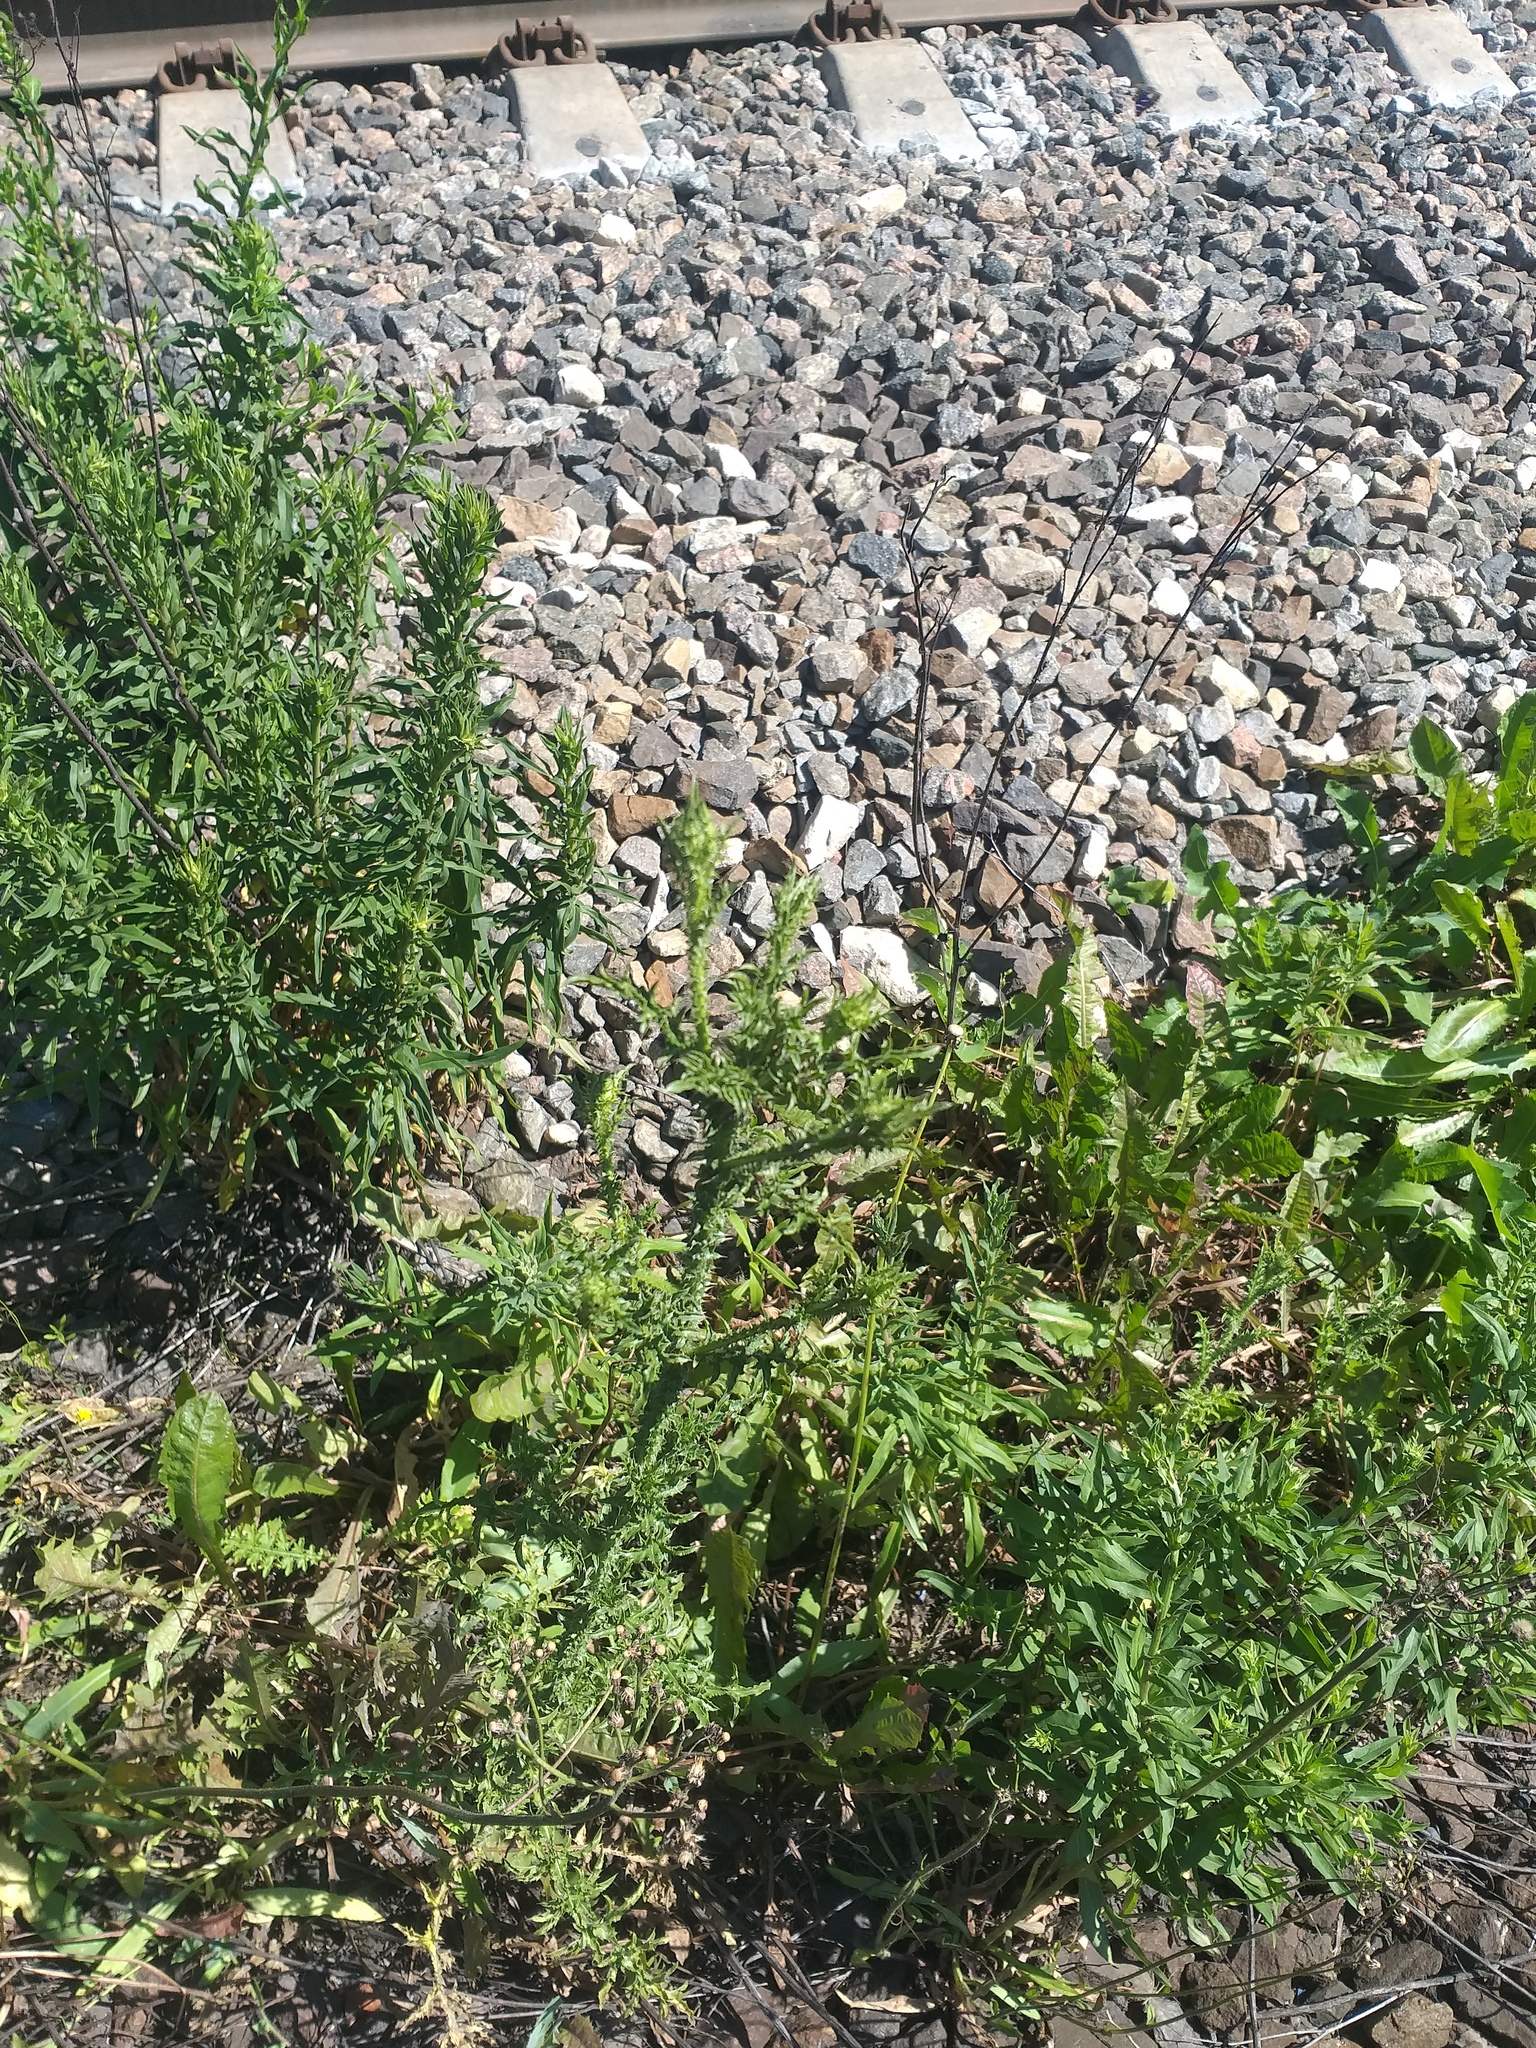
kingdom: Plantae
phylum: Tracheophyta
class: Magnoliopsida
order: Asterales
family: Asteraceae
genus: Carduus
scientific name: Carduus acanthoides
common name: Plumeless thistle
